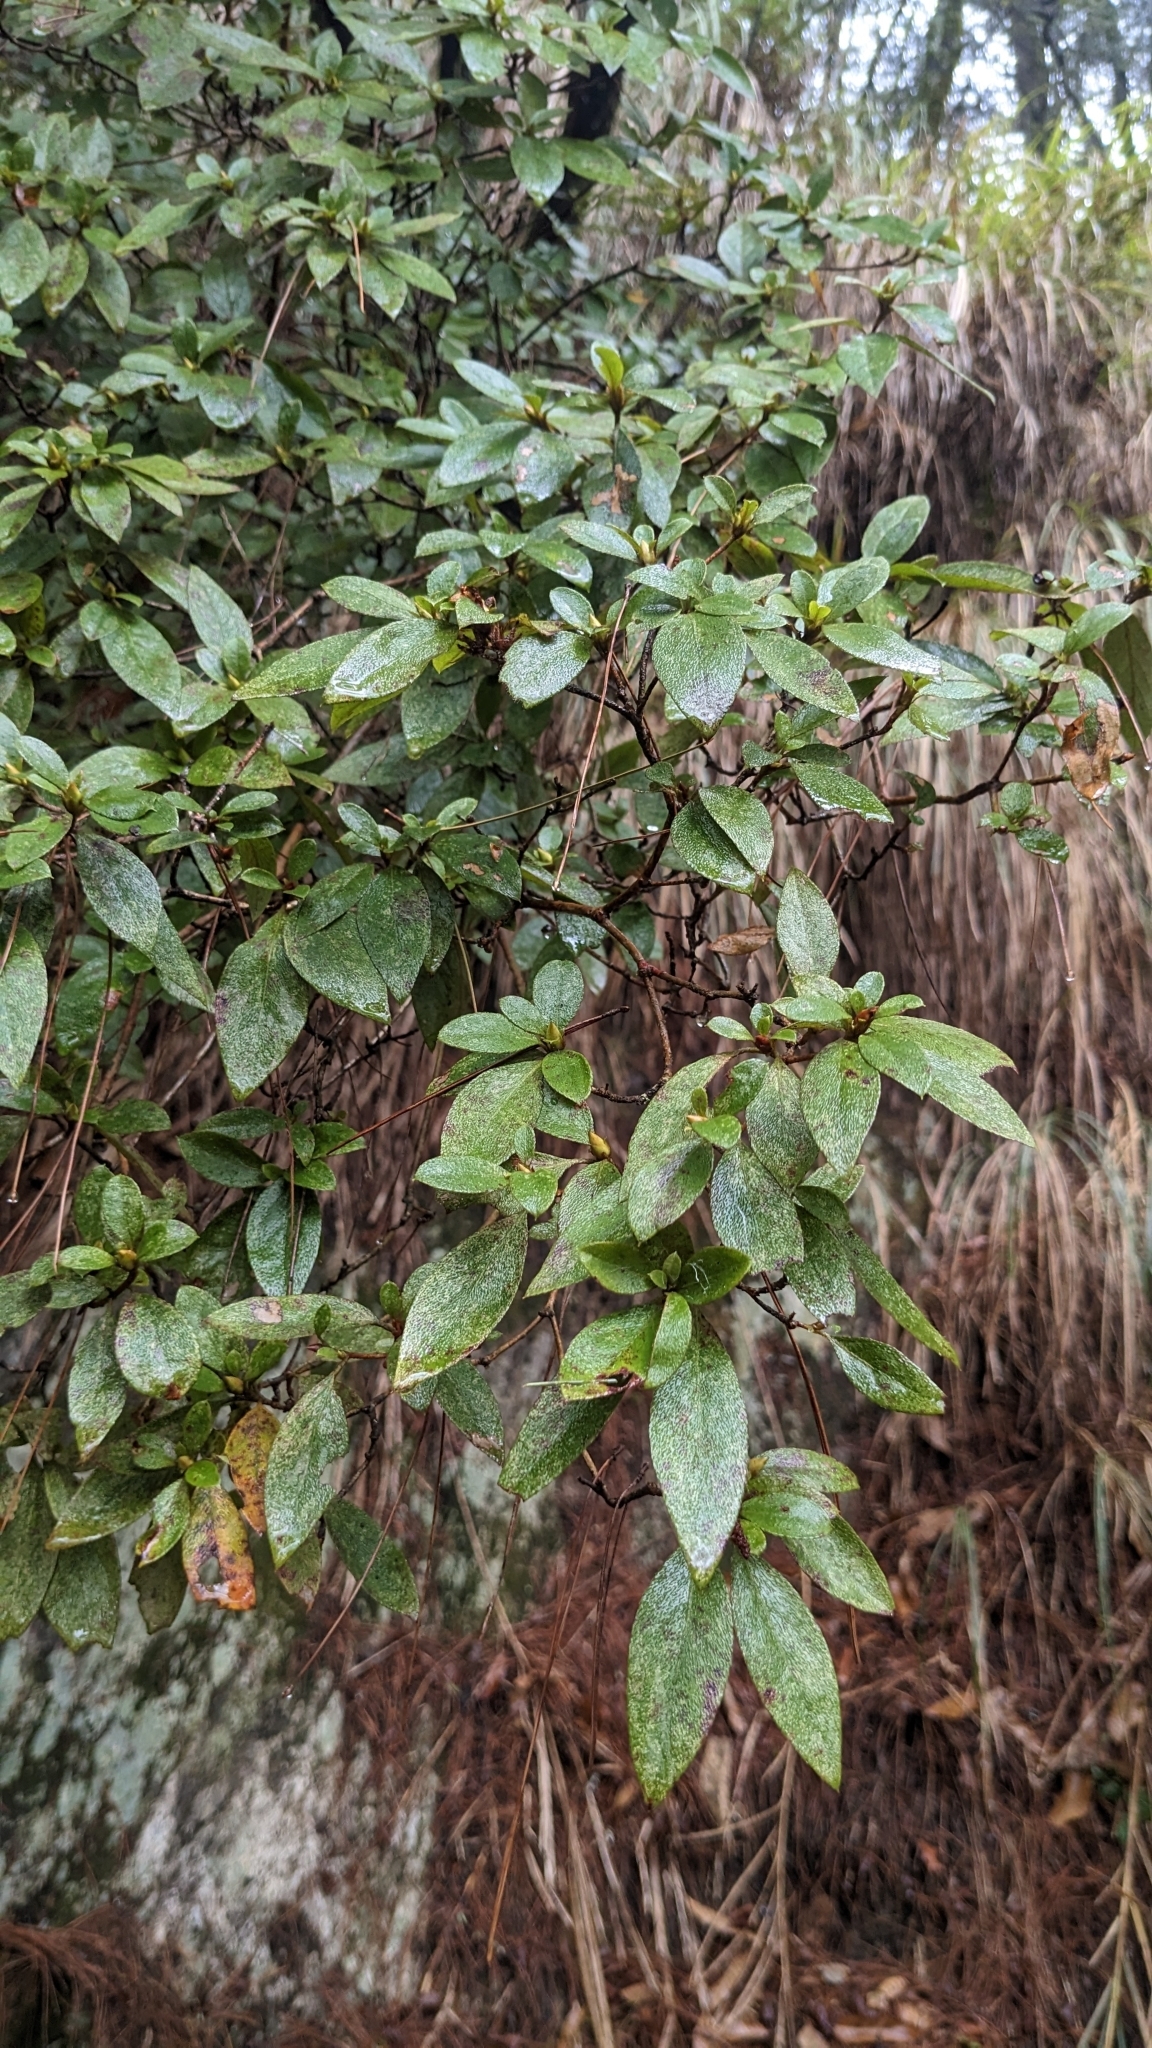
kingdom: Plantae
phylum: Tracheophyta
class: Magnoliopsida
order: Ericales
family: Ericaceae
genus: Rhododendron
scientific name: Rhododendron breviperulatum
